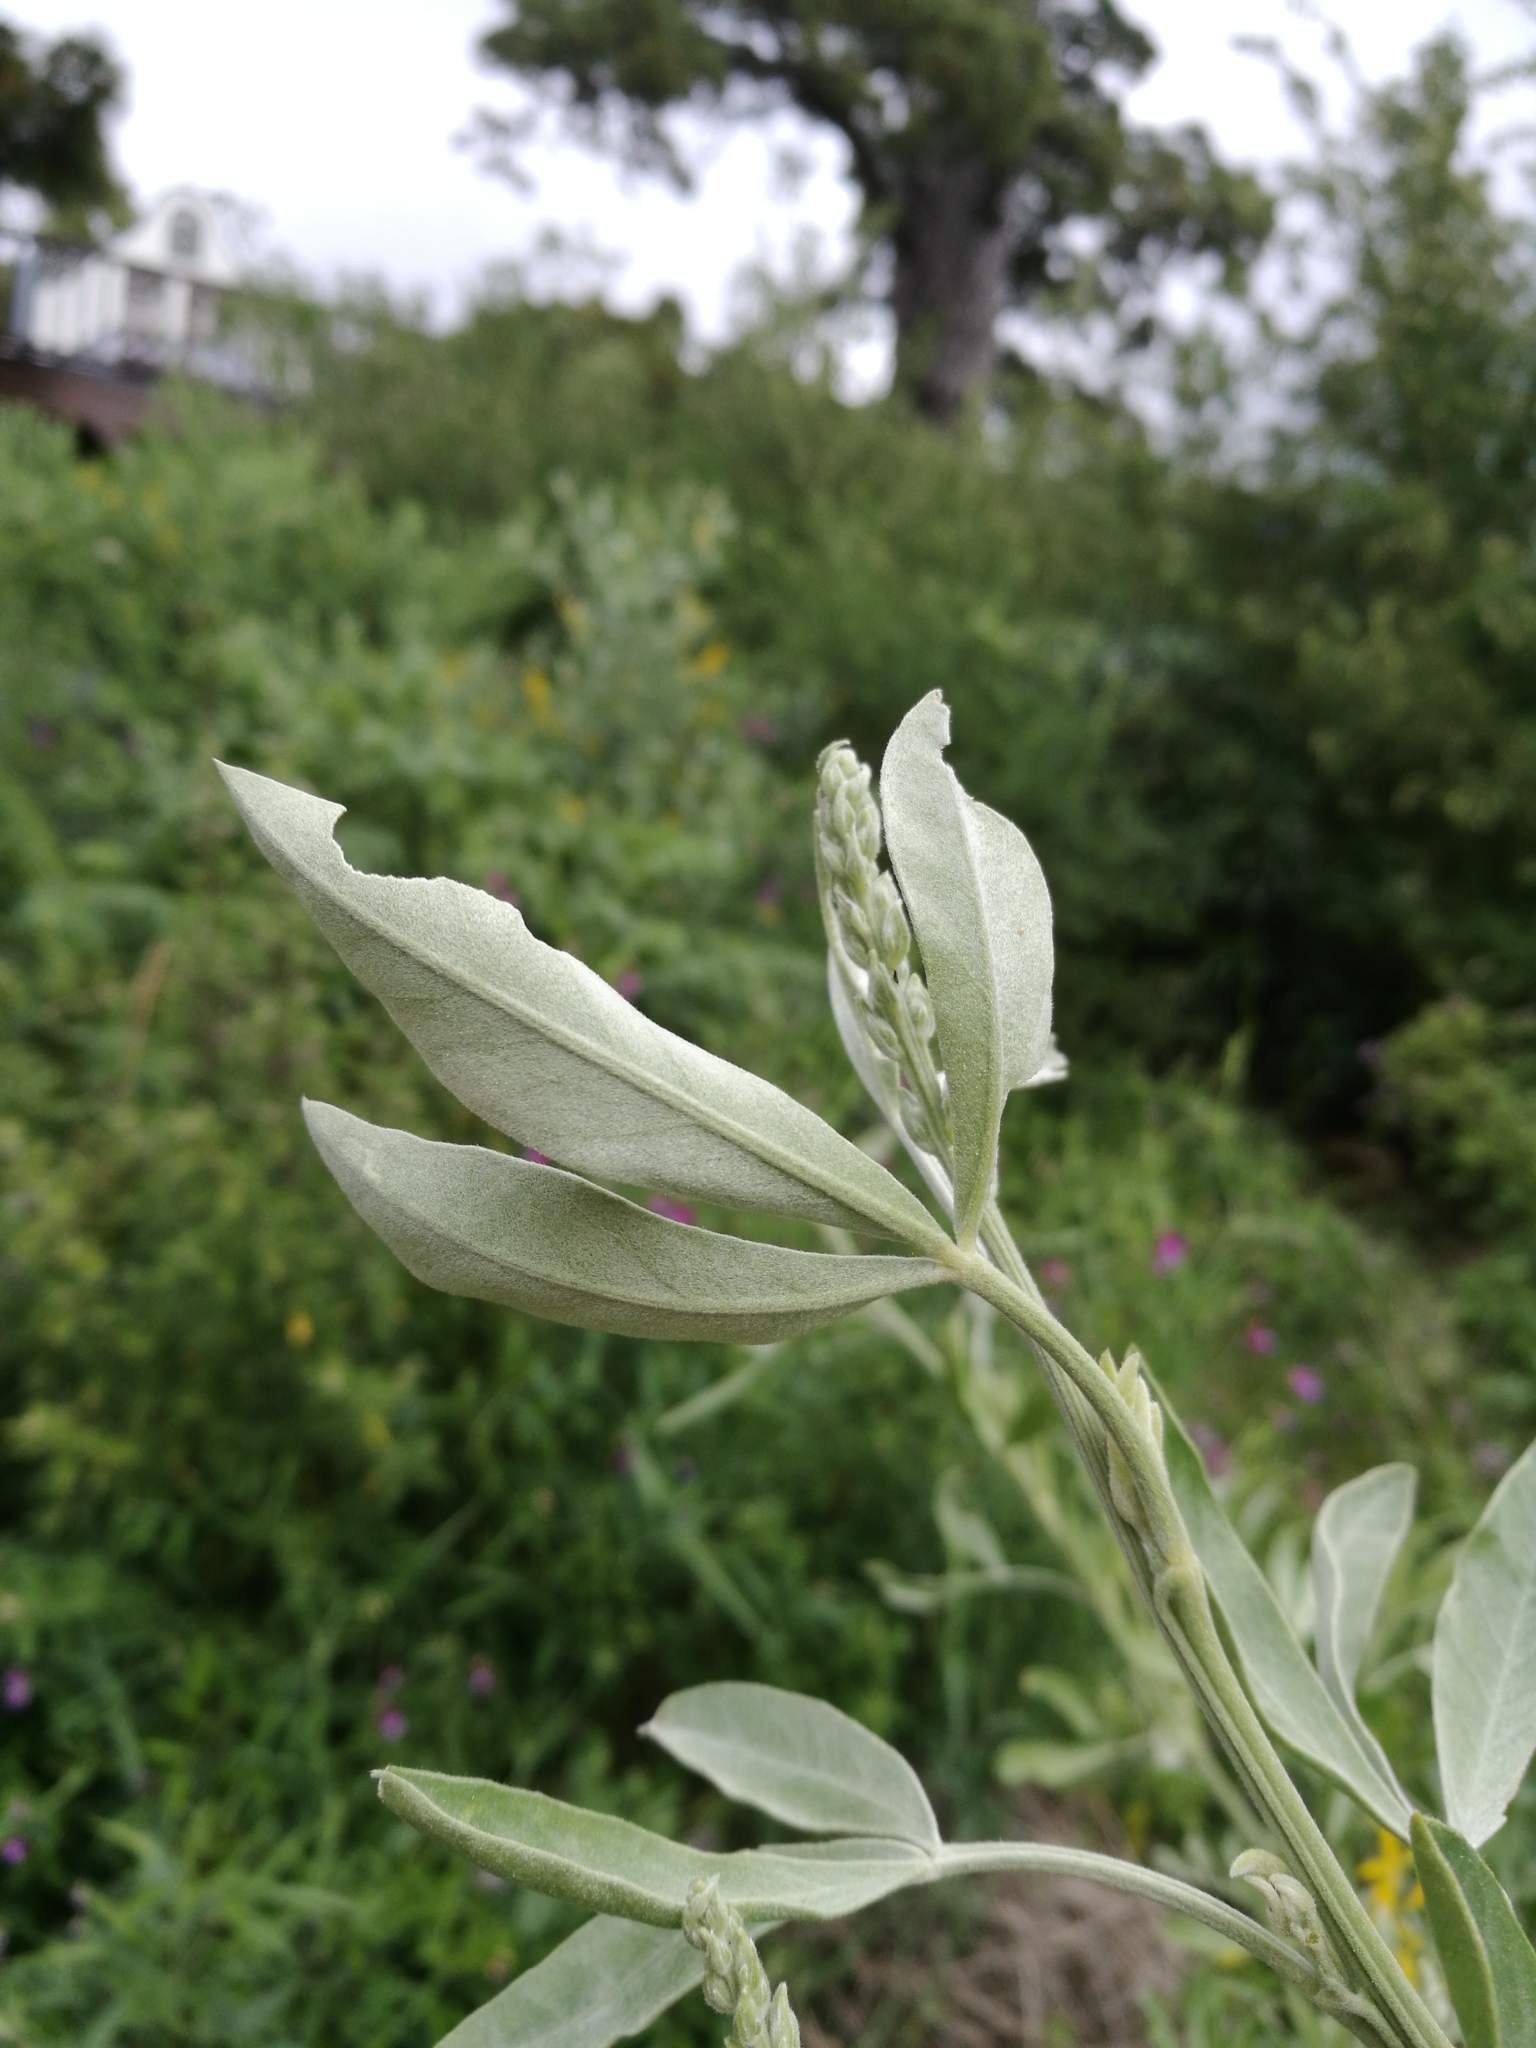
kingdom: Plantae
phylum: Tracheophyta
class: Magnoliopsida
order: Fabales
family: Fabaceae
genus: Genista
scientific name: Genista stenopetala
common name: Leafy broom
